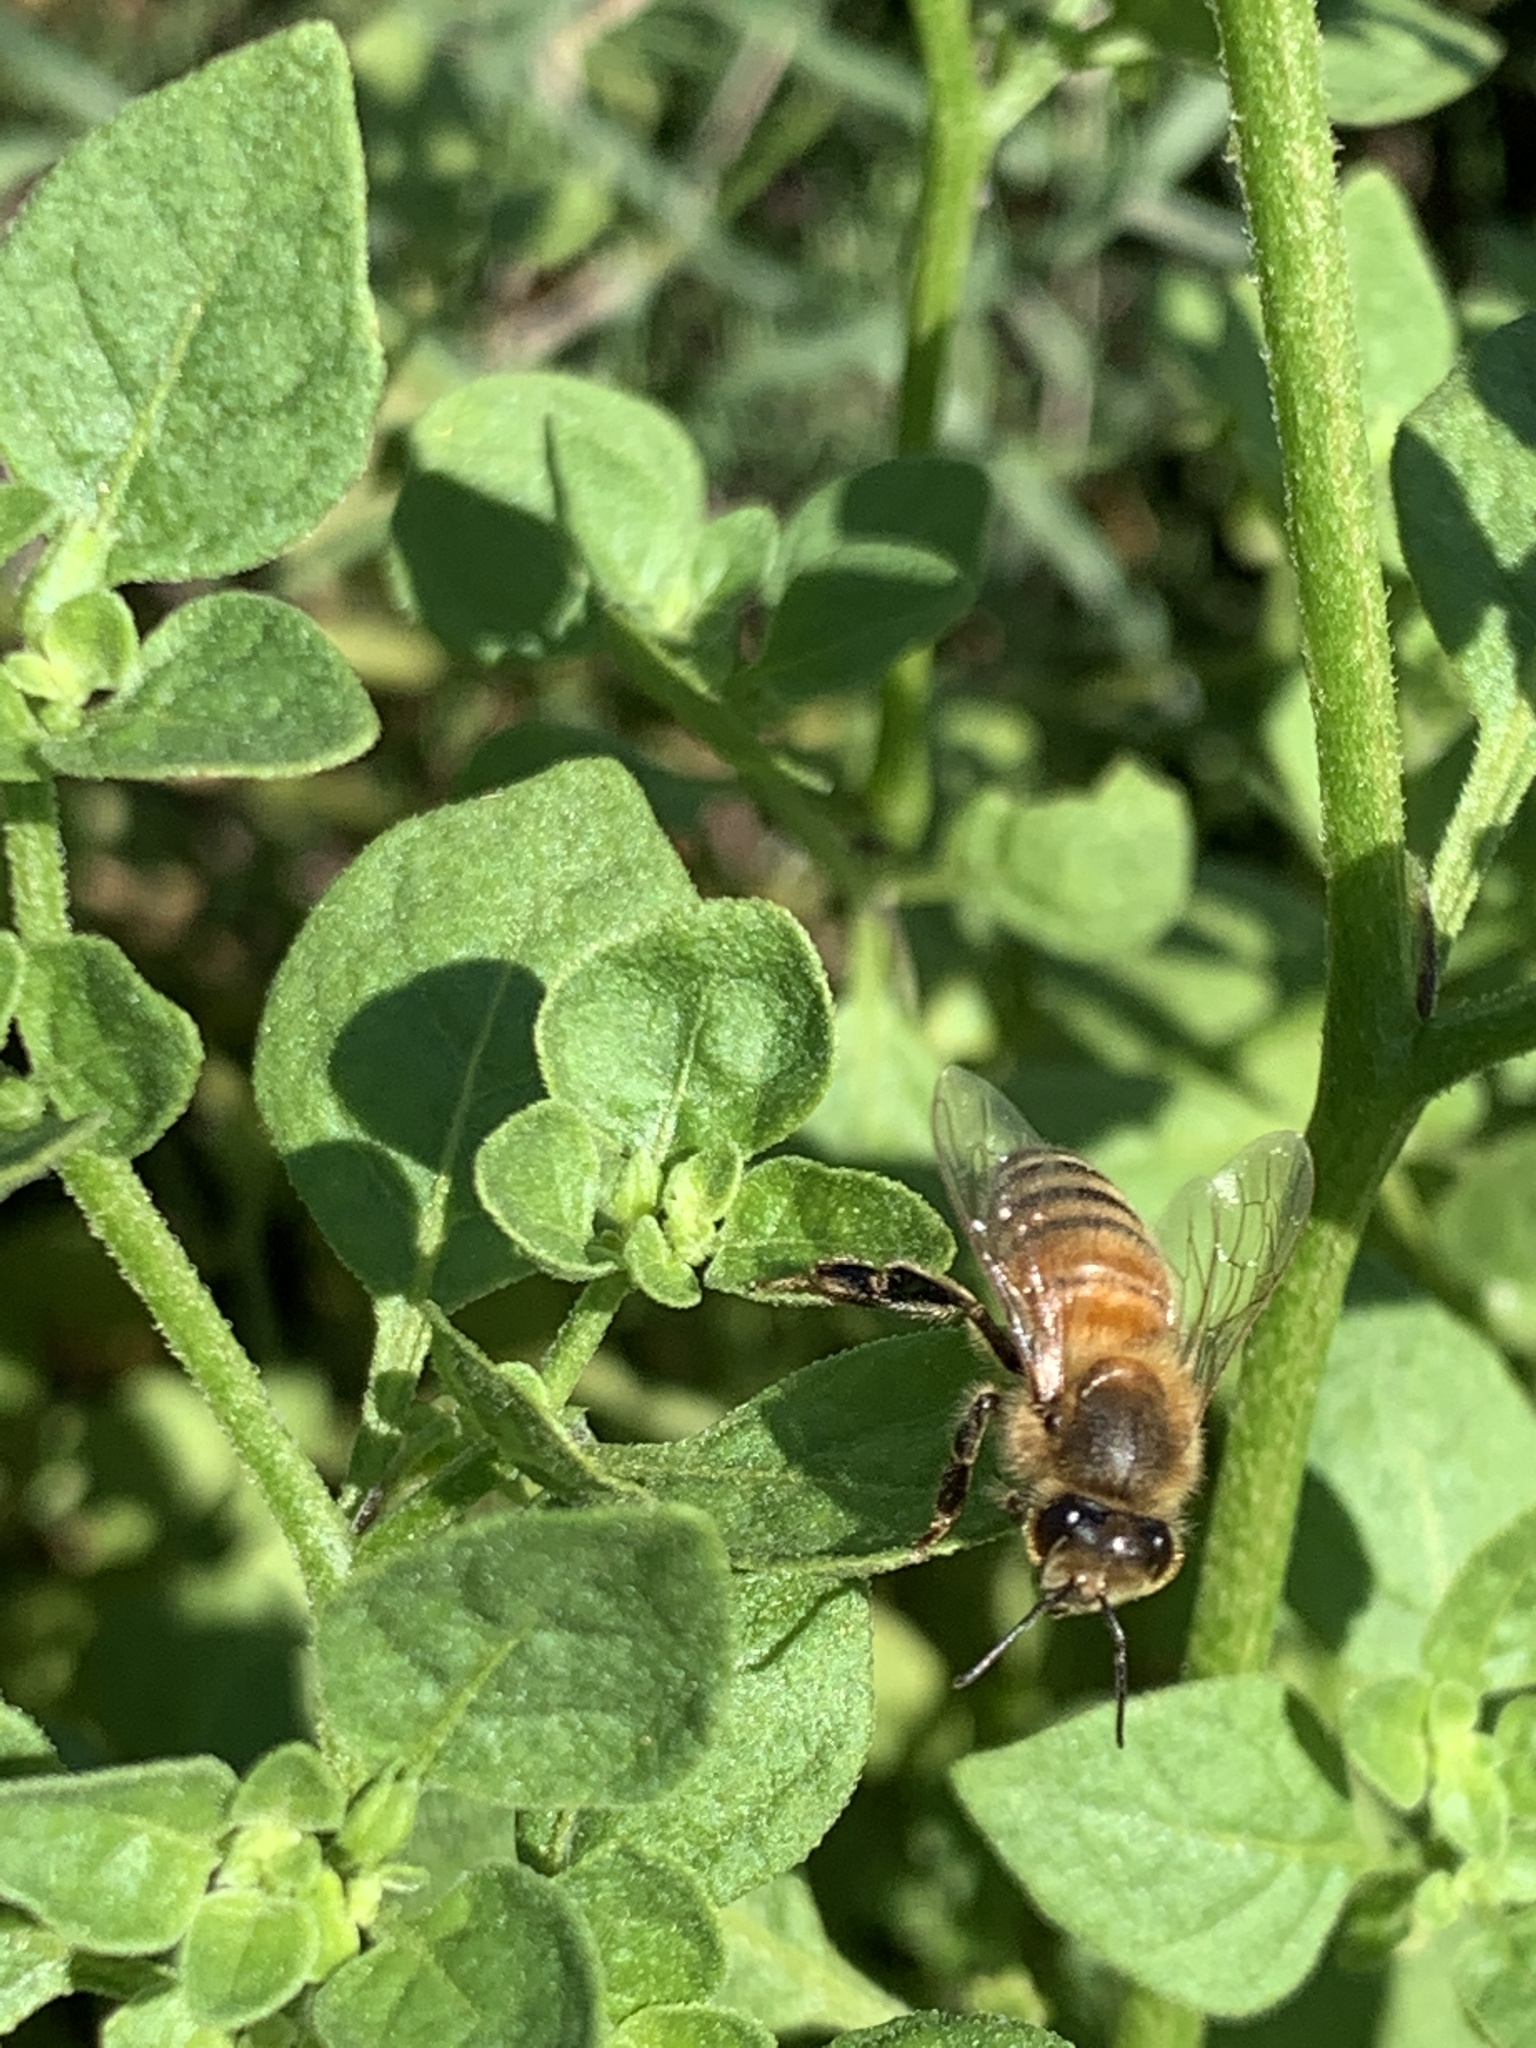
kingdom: Animalia
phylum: Arthropoda
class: Insecta
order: Hymenoptera
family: Apidae
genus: Apis
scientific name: Apis mellifera
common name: Honey bee
